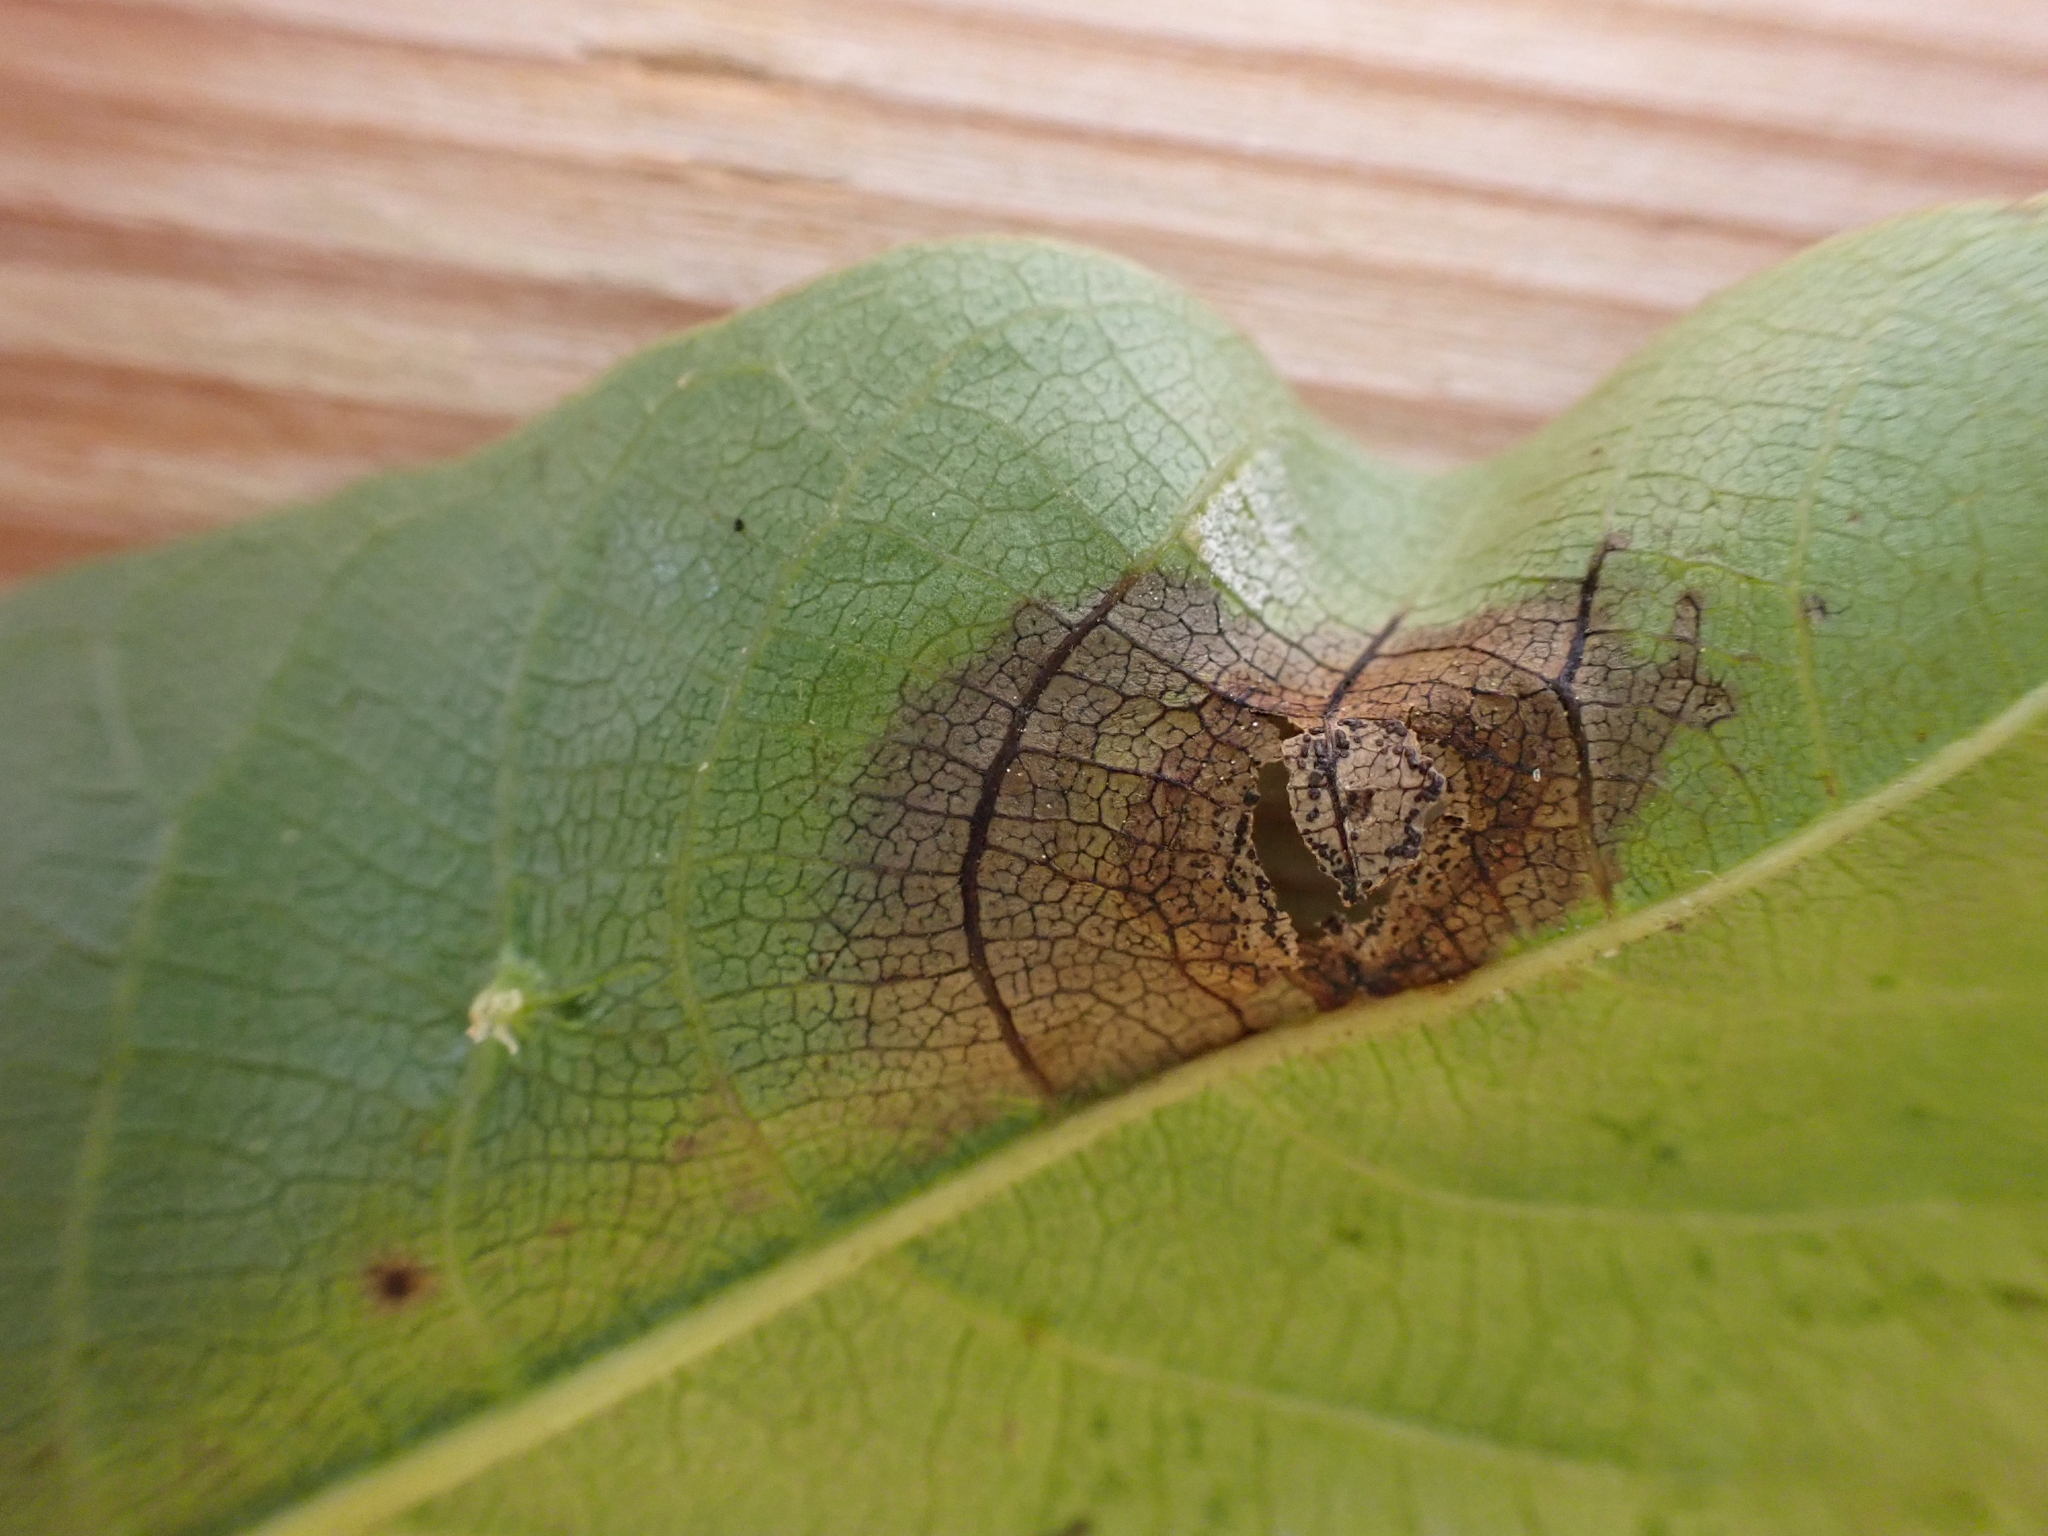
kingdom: Fungi
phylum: Ascomycota
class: Sordariomycetes
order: Diaporthales
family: Gnomoniaceae
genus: Ophiognomonia
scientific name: Ophiognomonia leptostyla
